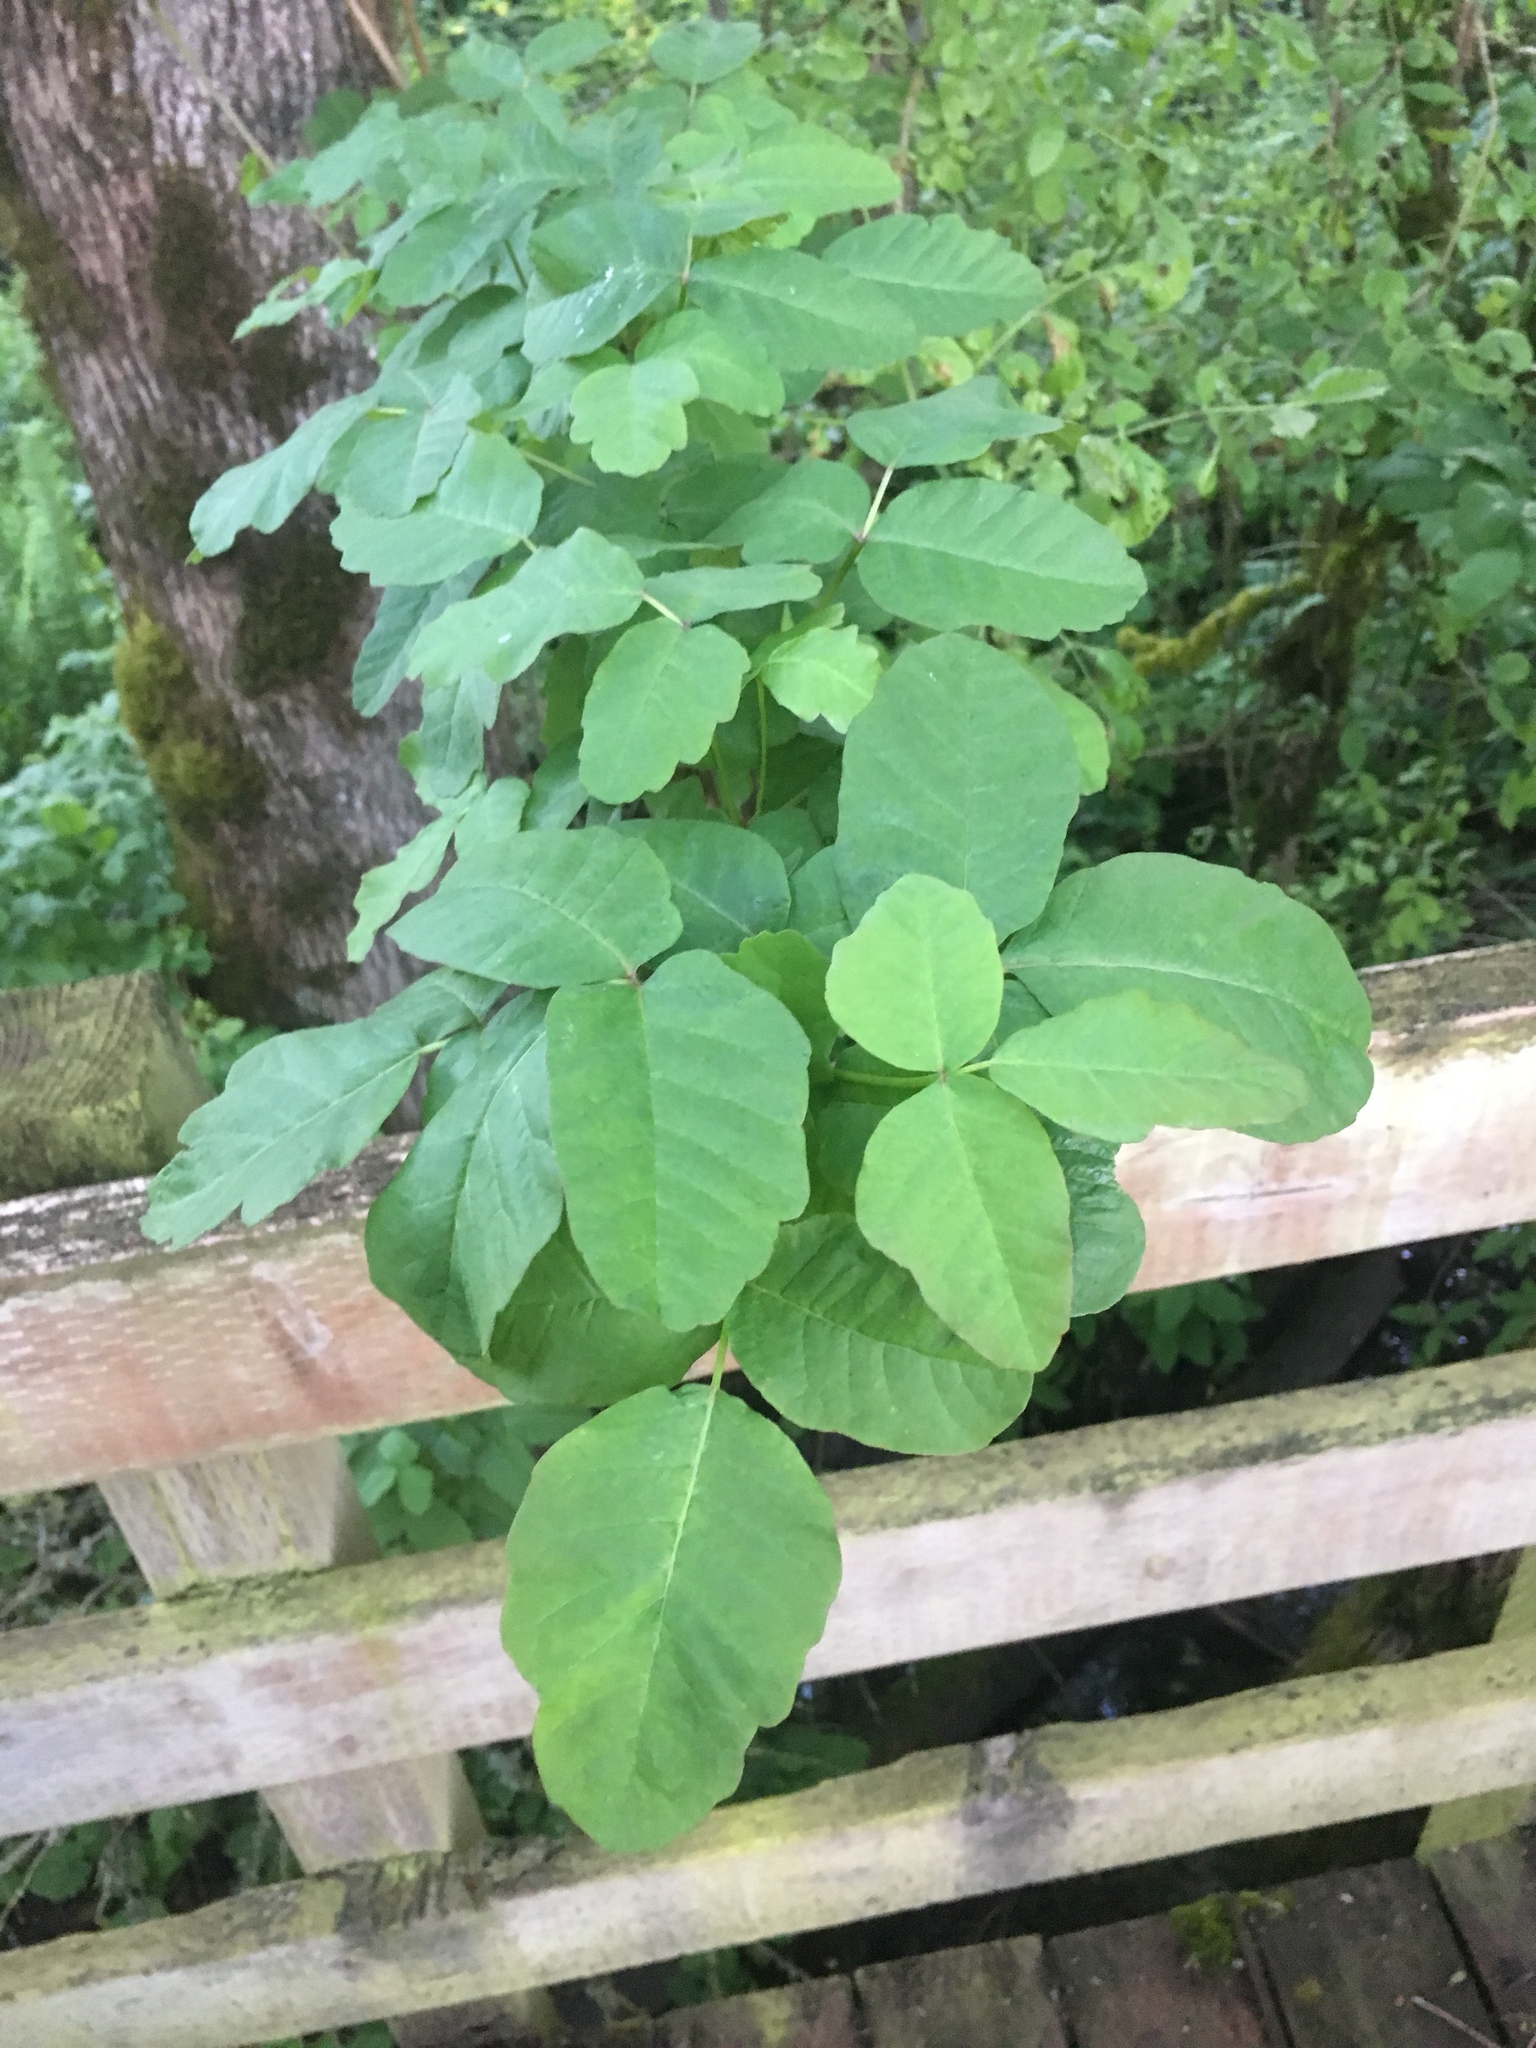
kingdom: Plantae
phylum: Tracheophyta
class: Magnoliopsida
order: Sapindales
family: Anacardiaceae
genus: Toxicodendron
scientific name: Toxicodendron diversilobum
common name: Pacific poison-oak
